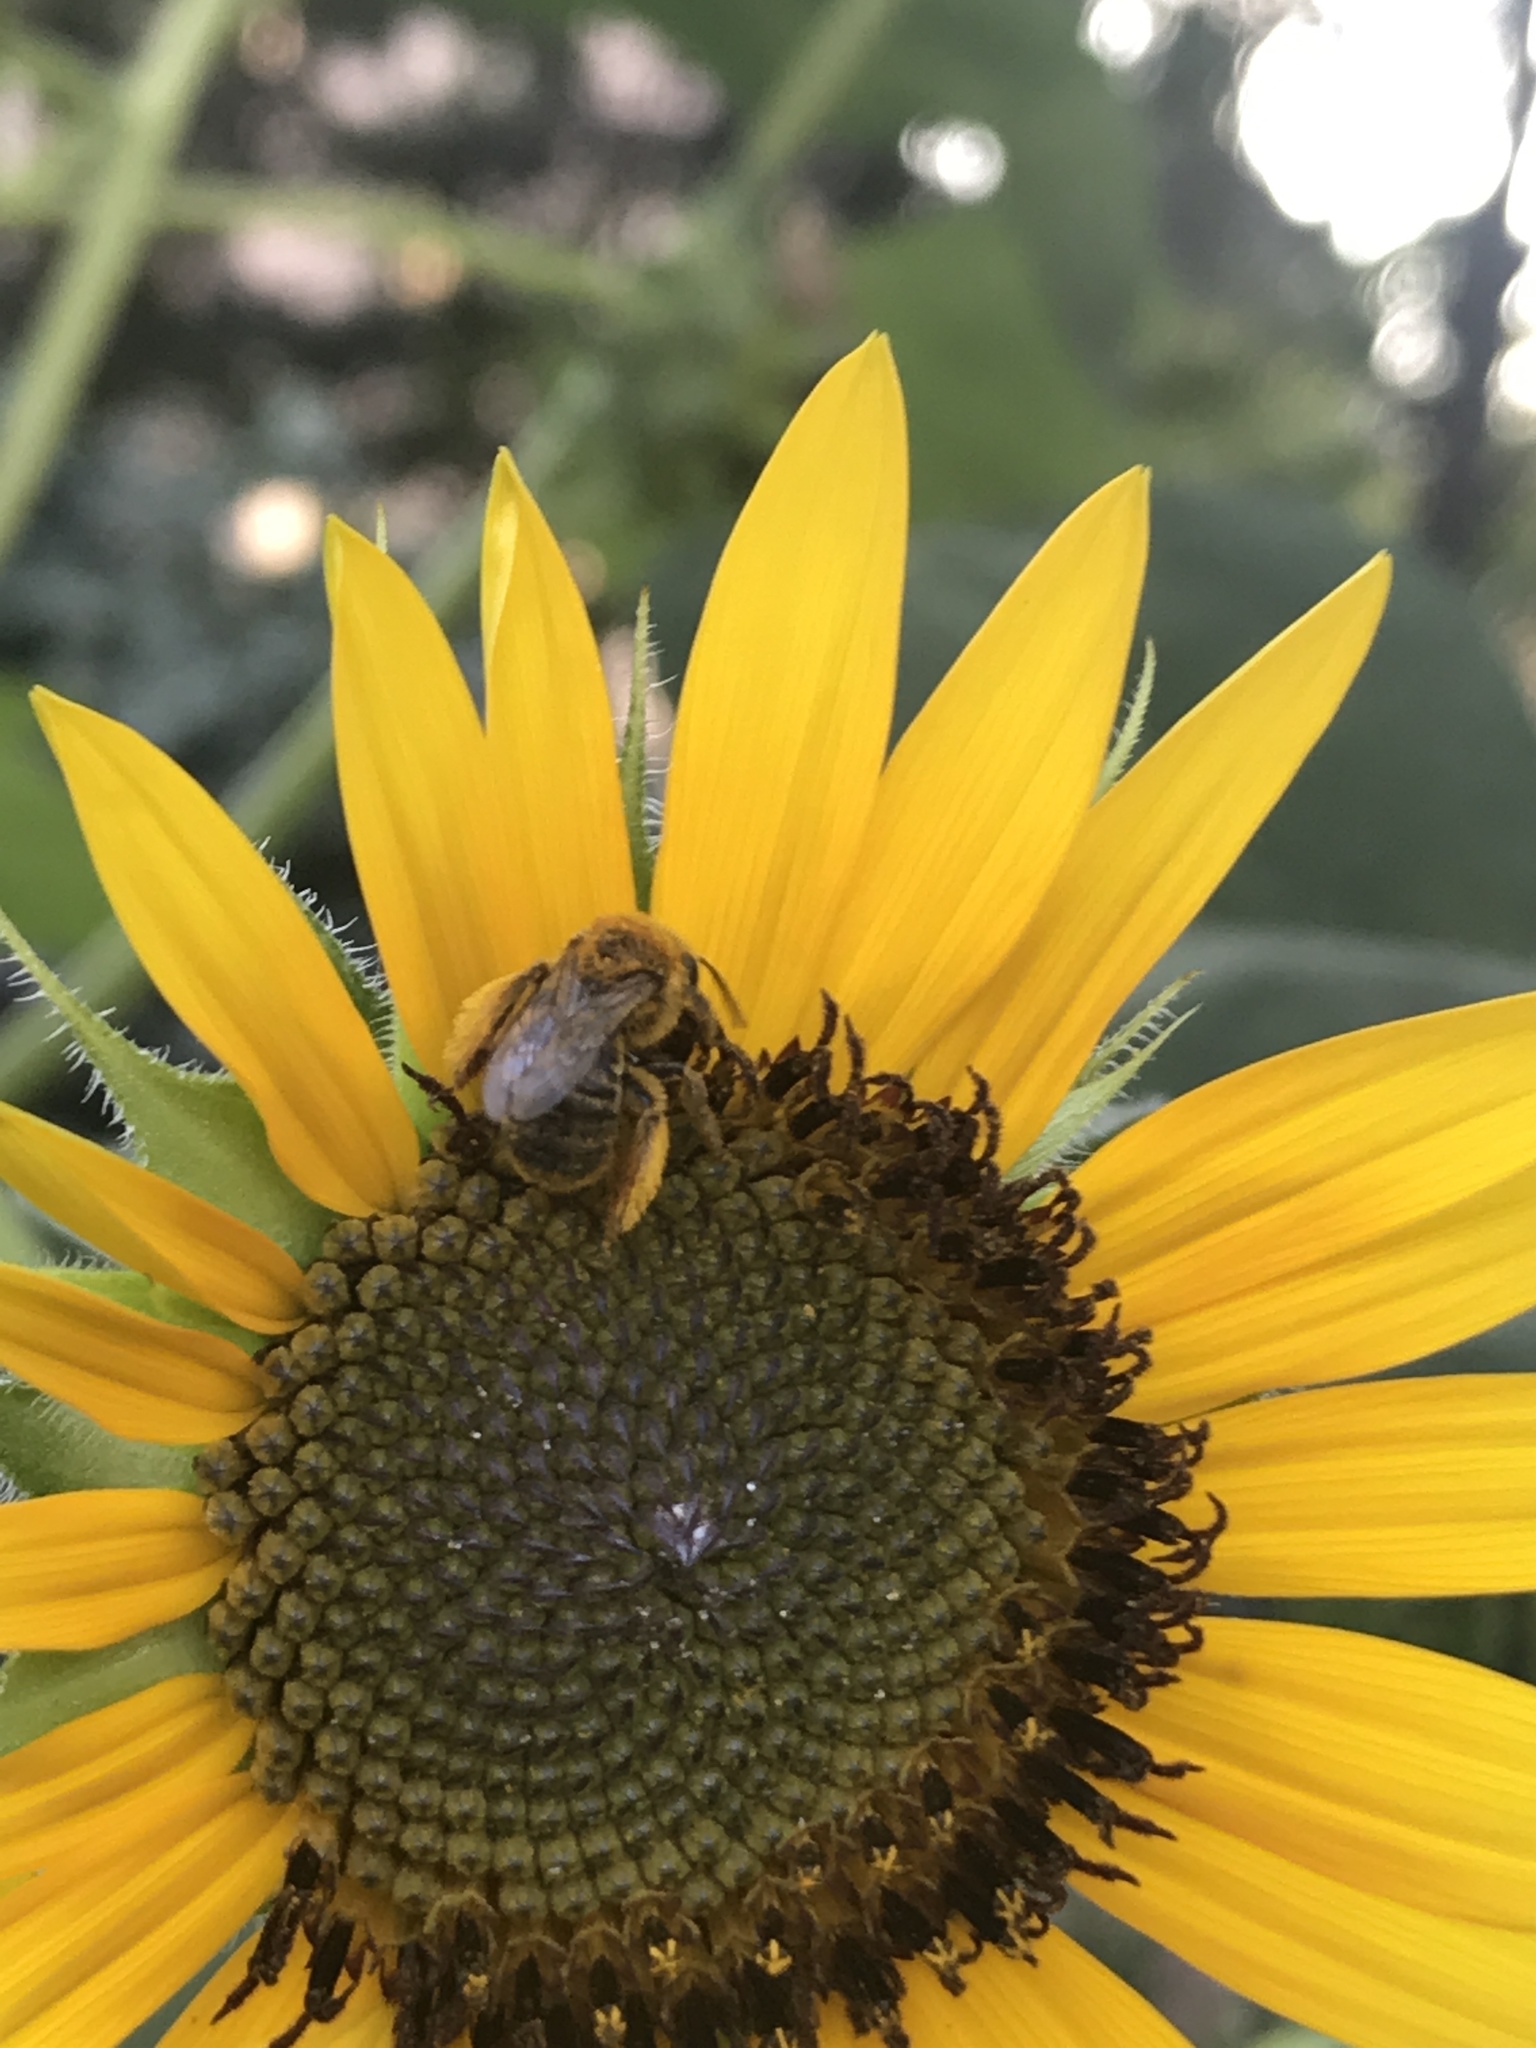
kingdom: Animalia
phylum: Arthropoda
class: Insecta
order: Hymenoptera
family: Apidae
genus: Melissodes
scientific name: Melissodes trinodis
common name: Dark-veined longhorn
